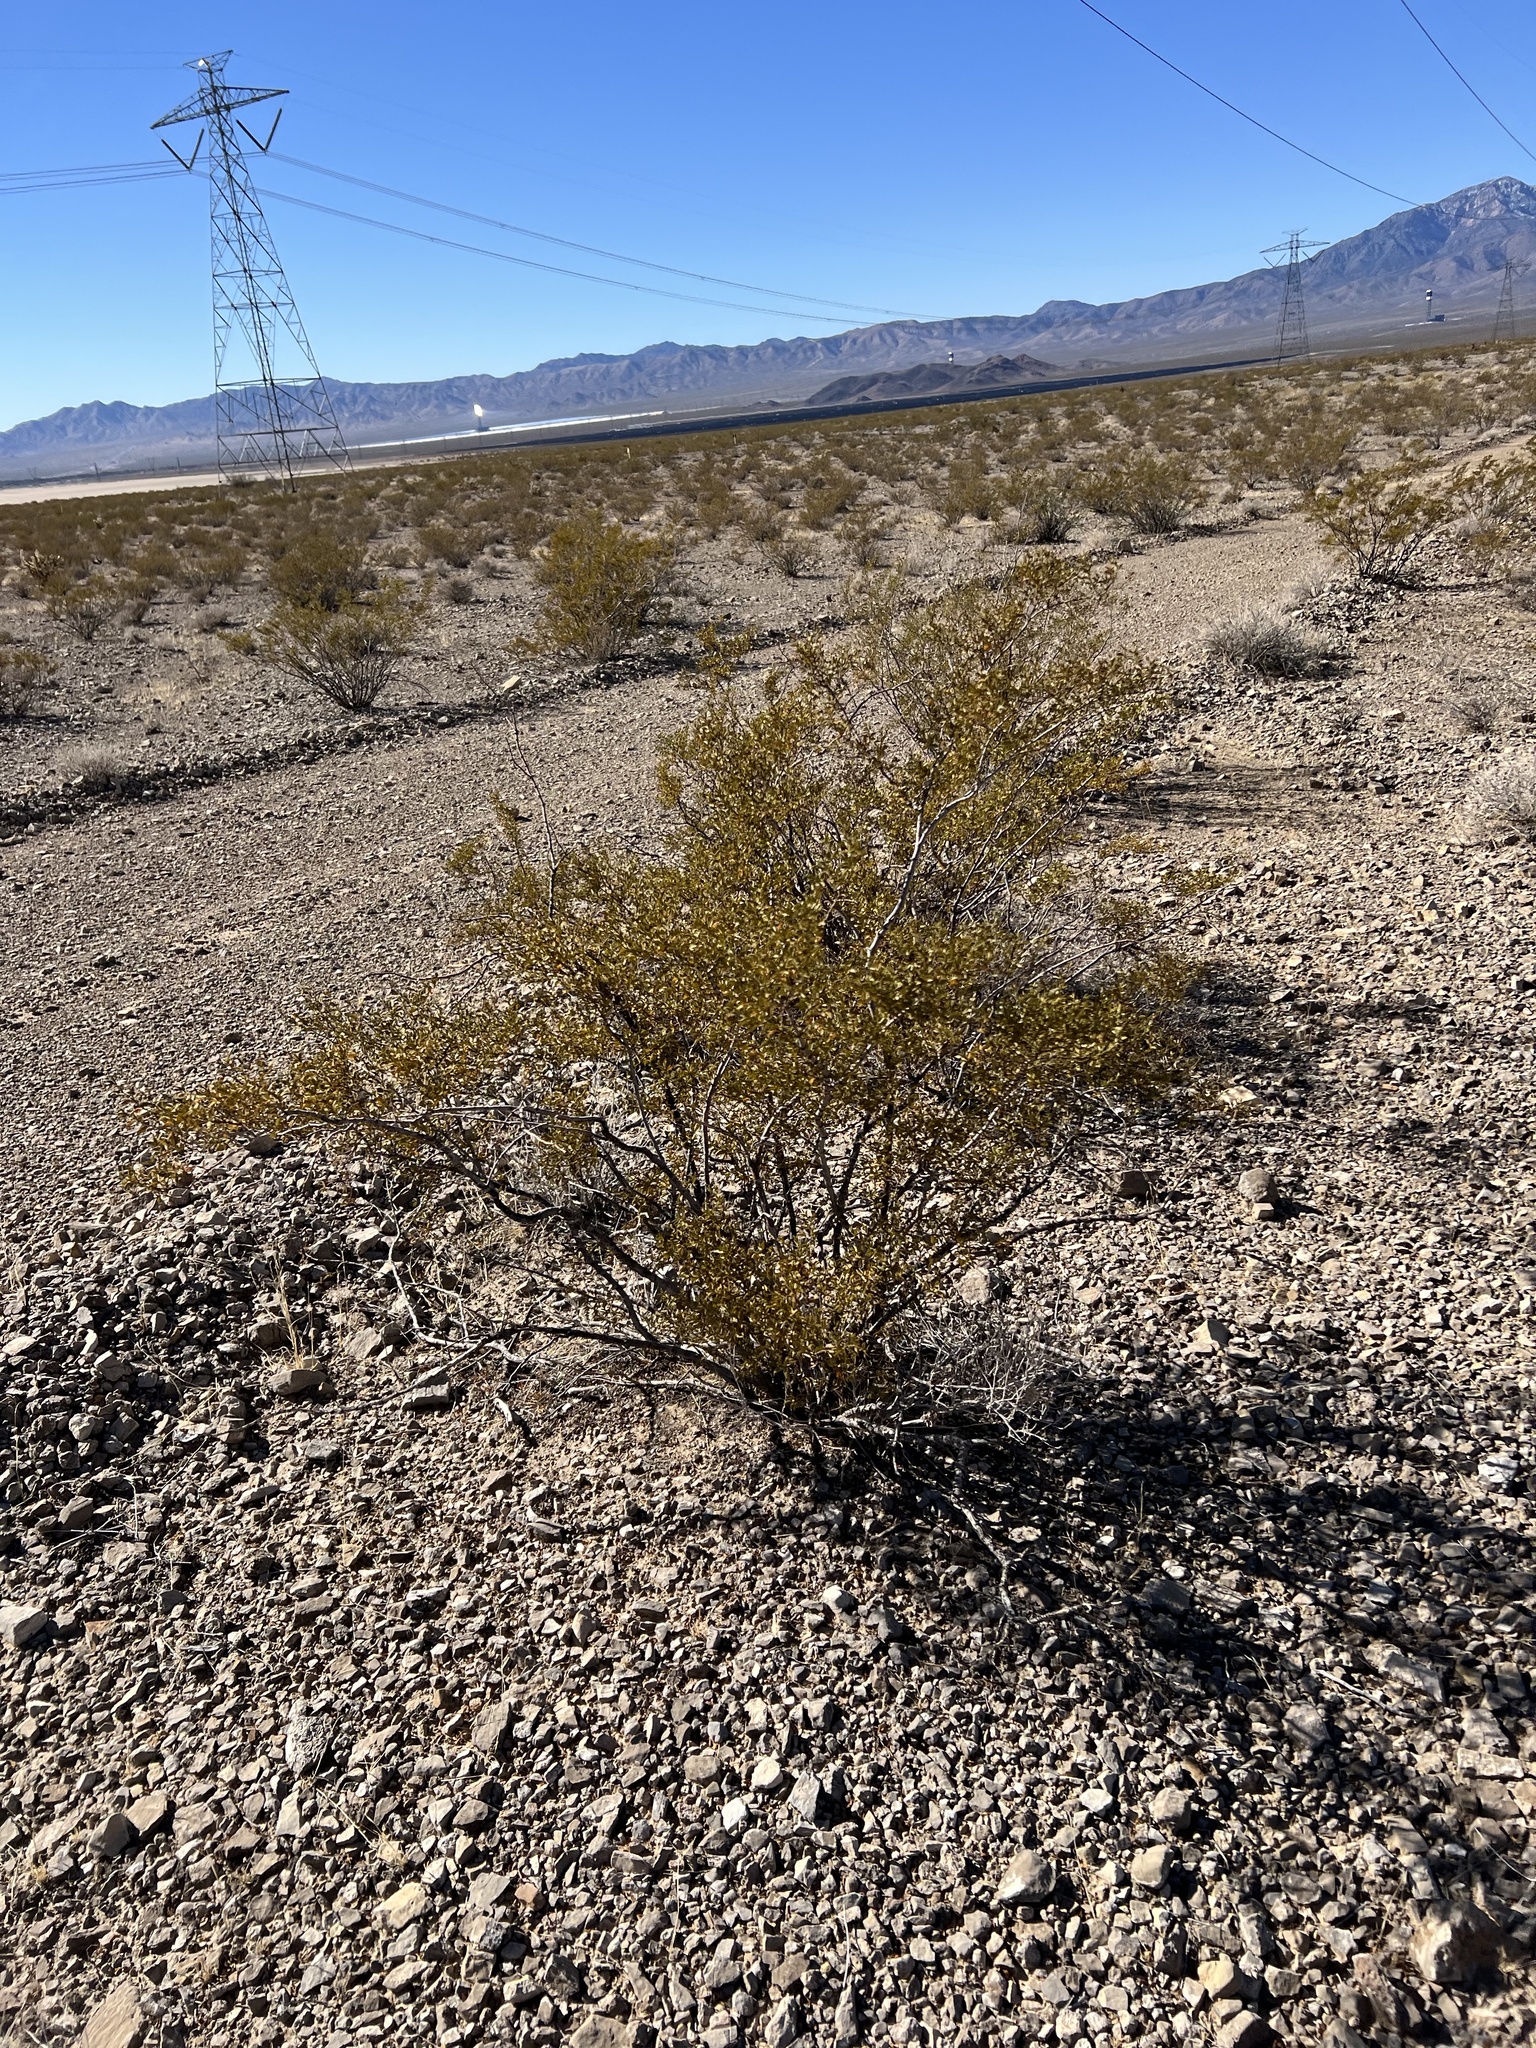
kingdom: Plantae
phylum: Tracheophyta
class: Magnoliopsida
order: Zygophyllales
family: Zygophyllaceae
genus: Larrea
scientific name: Larrea tridentata
